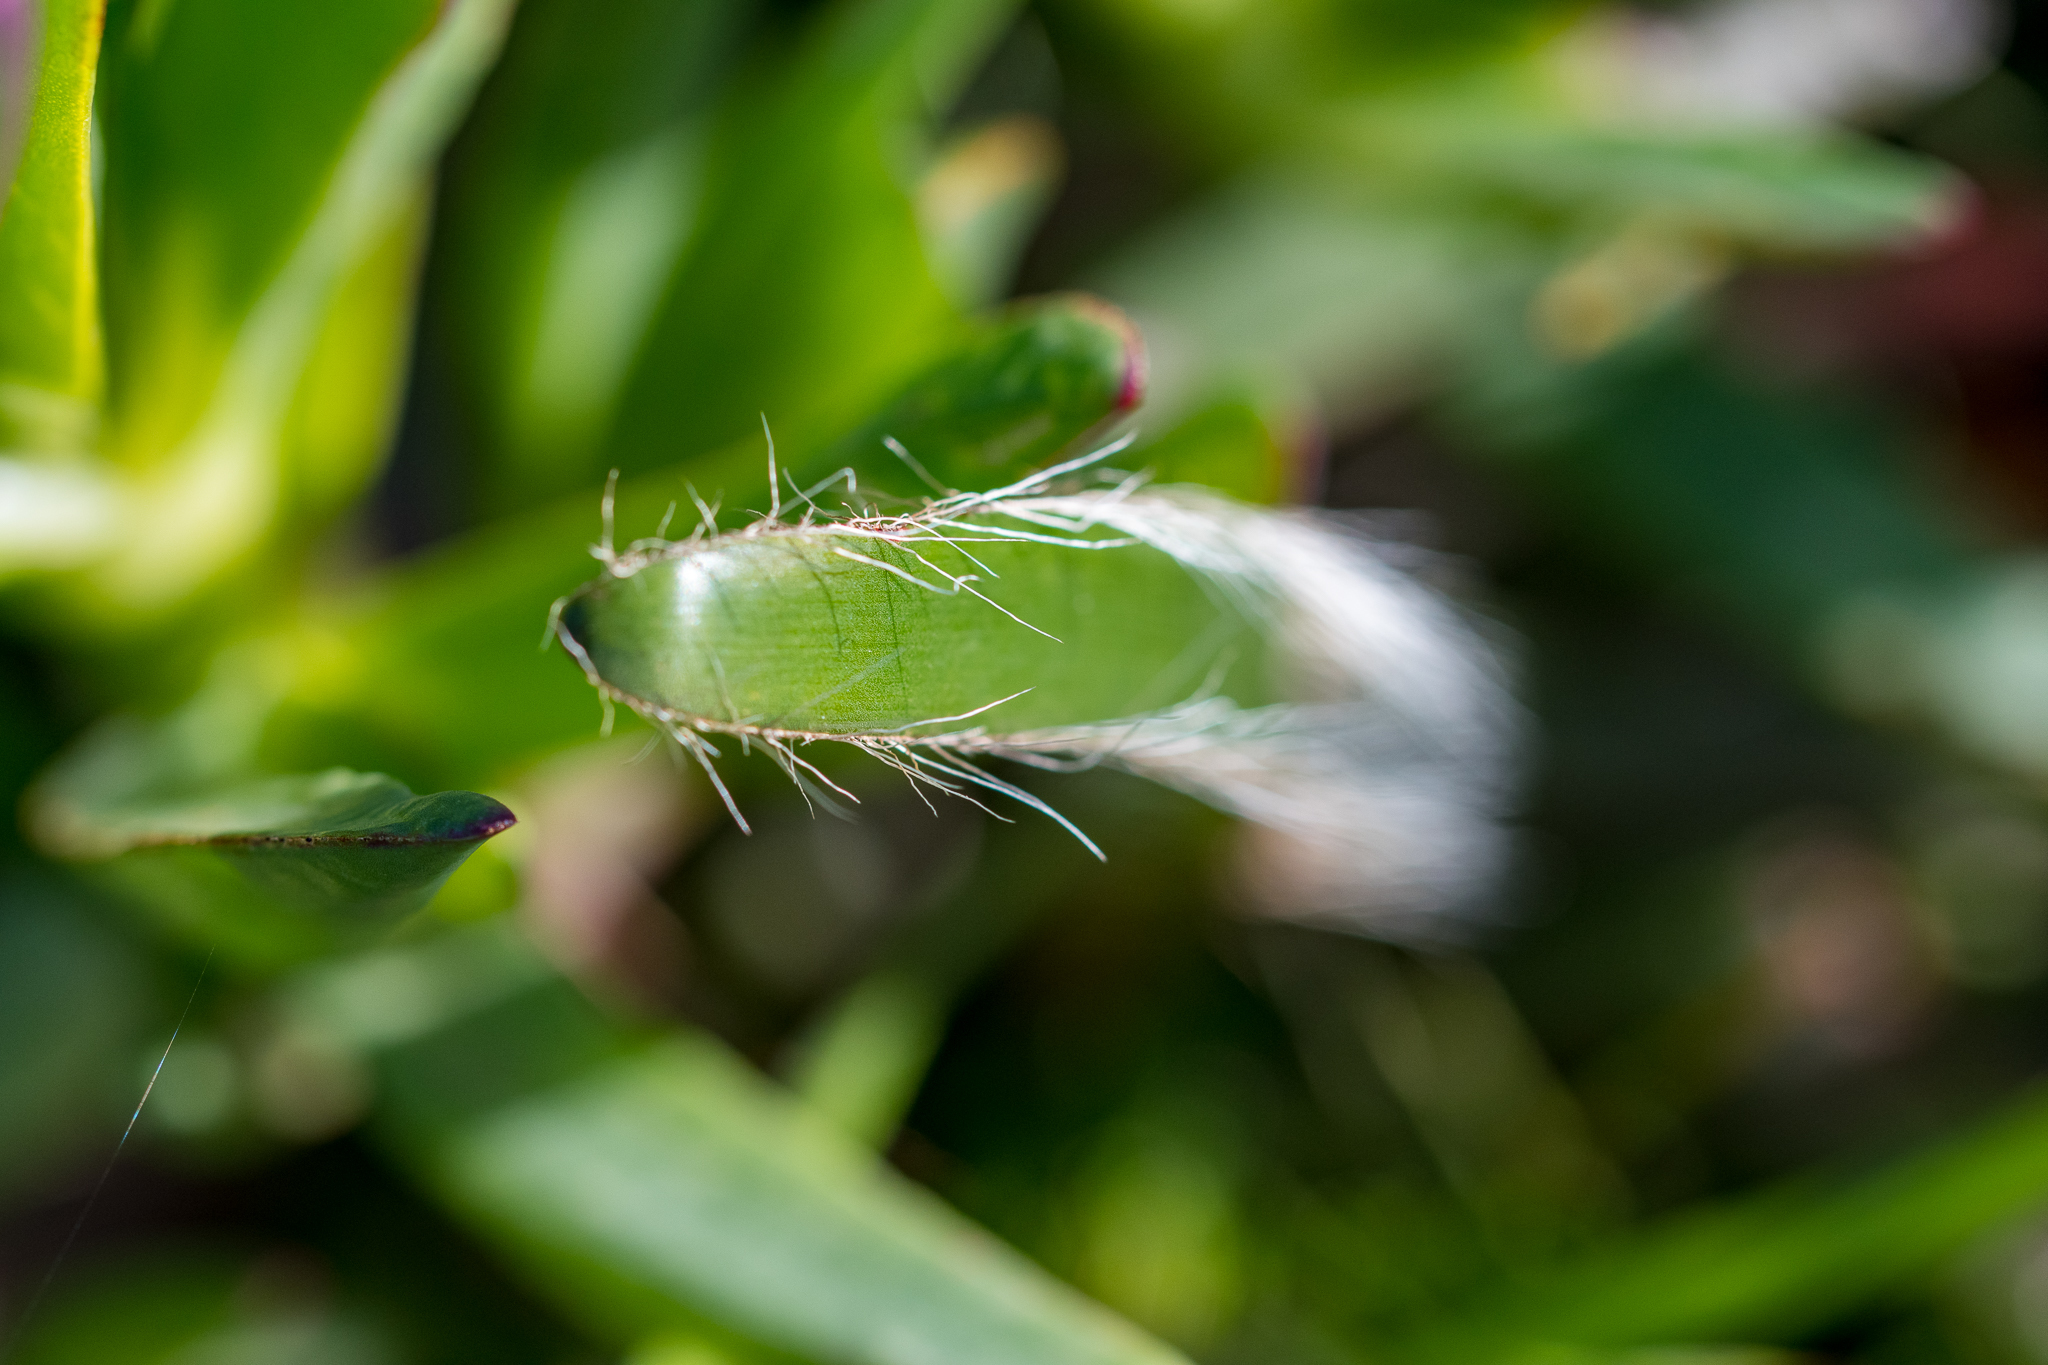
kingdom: Plantae
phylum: Tracheophyta
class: Liliopsida
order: Asparagales
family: Amaryllidaceae
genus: Crossyne
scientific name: Crossyne guttata
